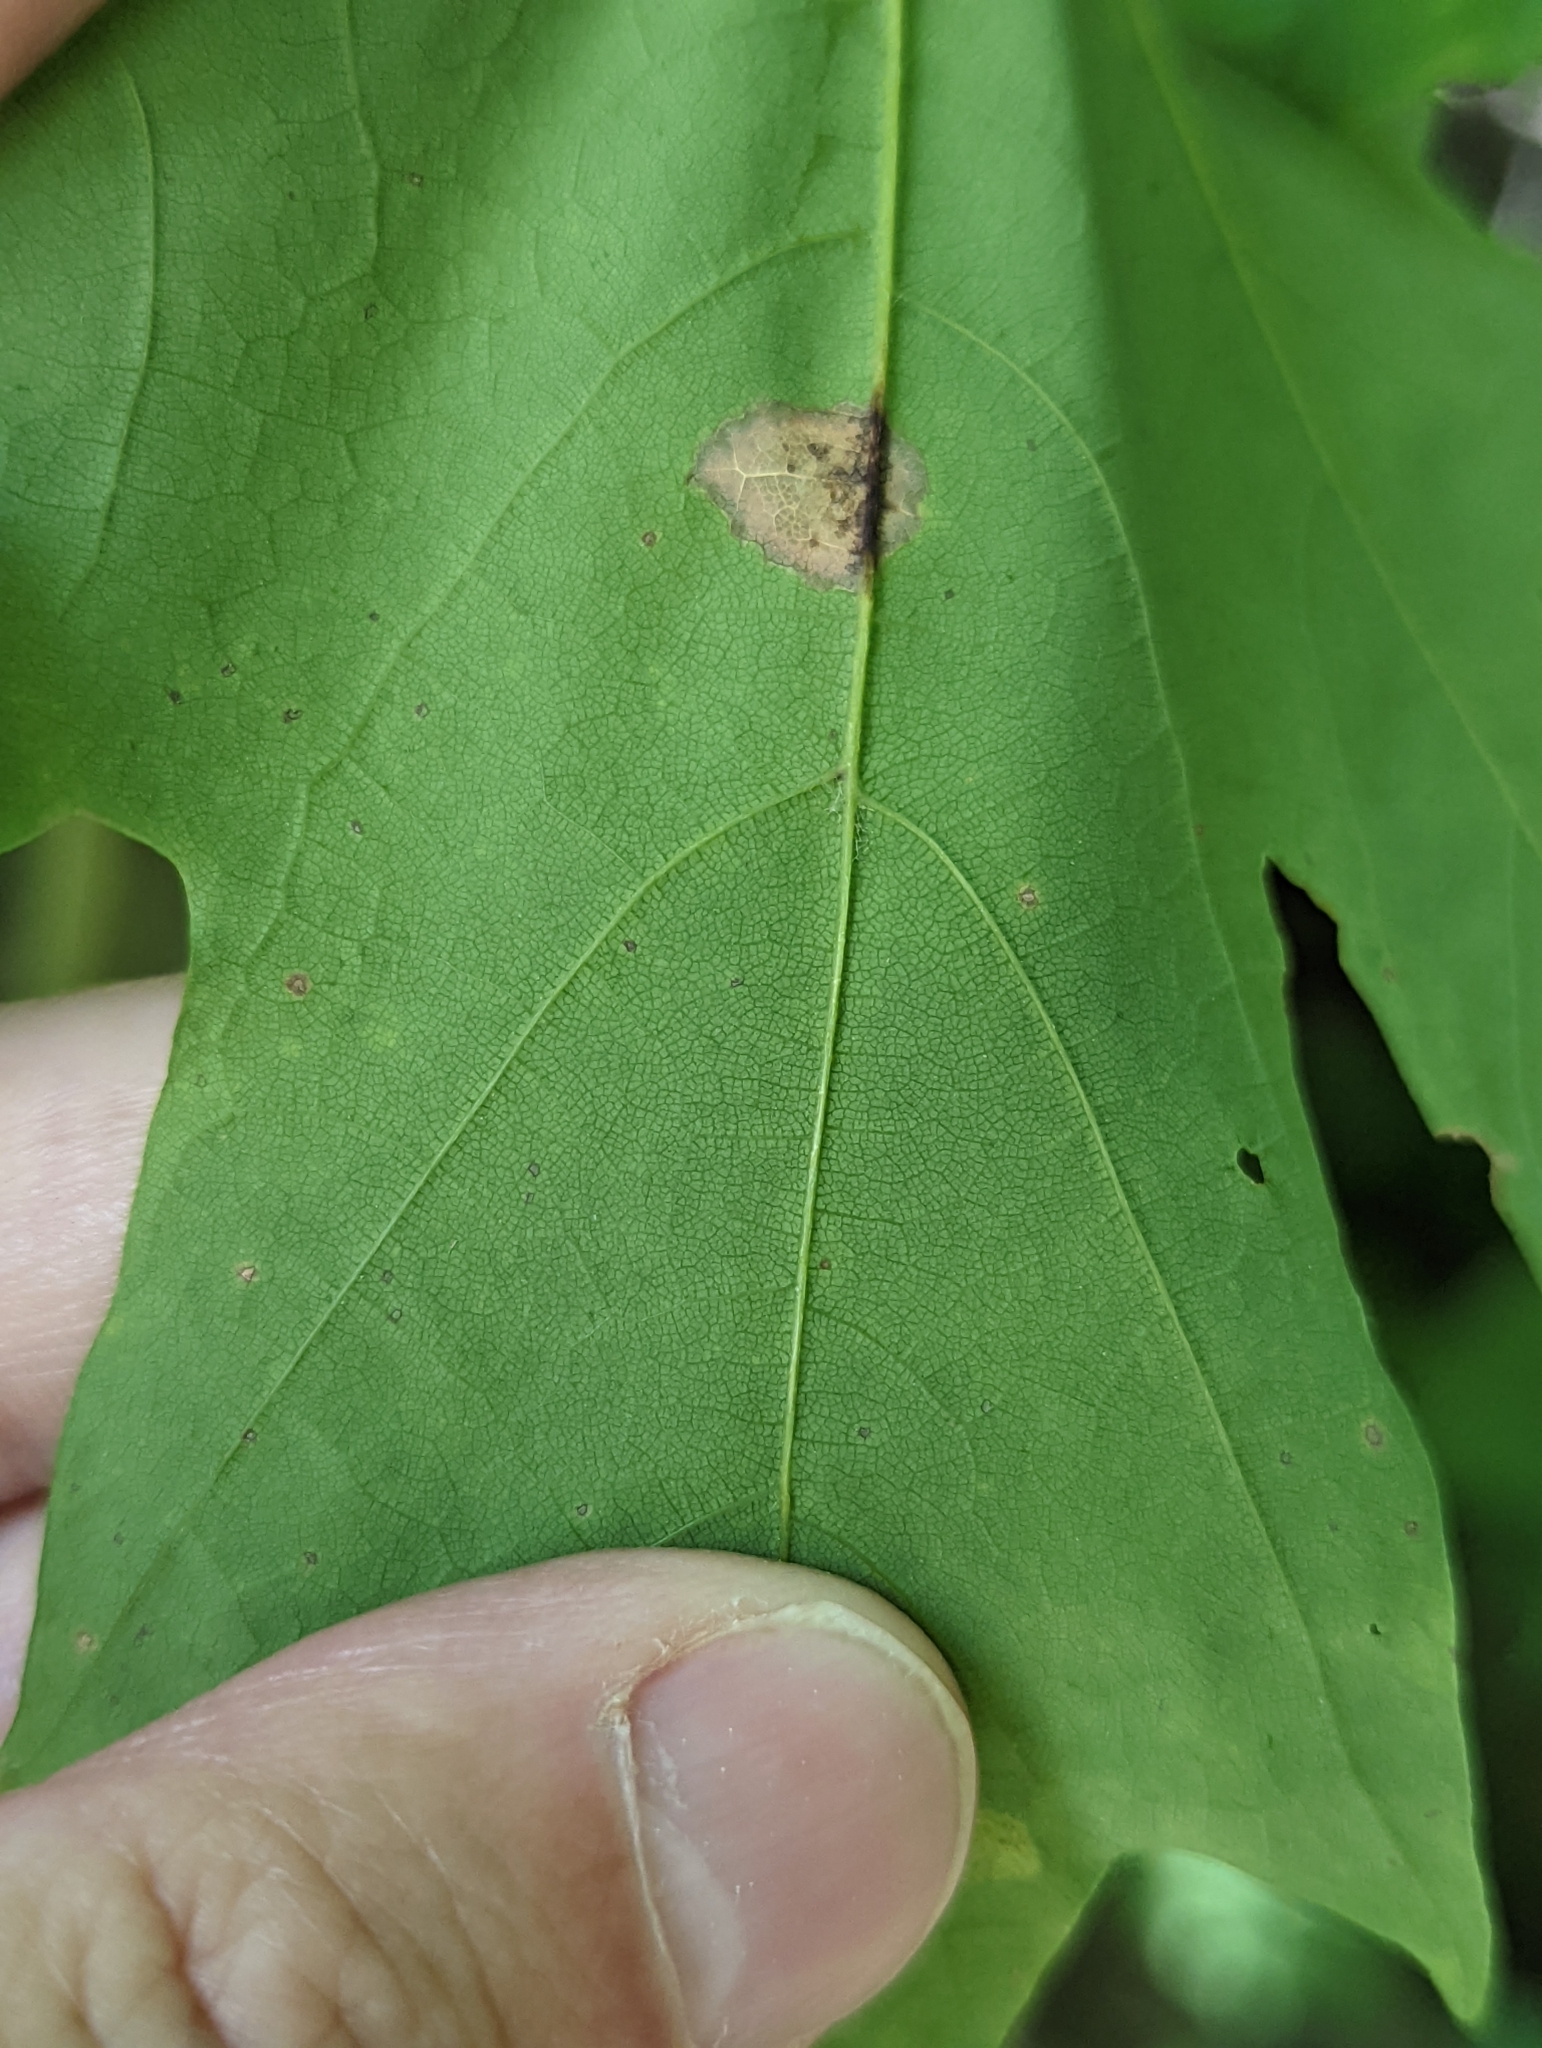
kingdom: Plantae
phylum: Tracheophyta
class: Magnoliopsida
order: Sapindales
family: Sapindaceae
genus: Acer
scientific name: Acer saccharum
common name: Sugar maple
